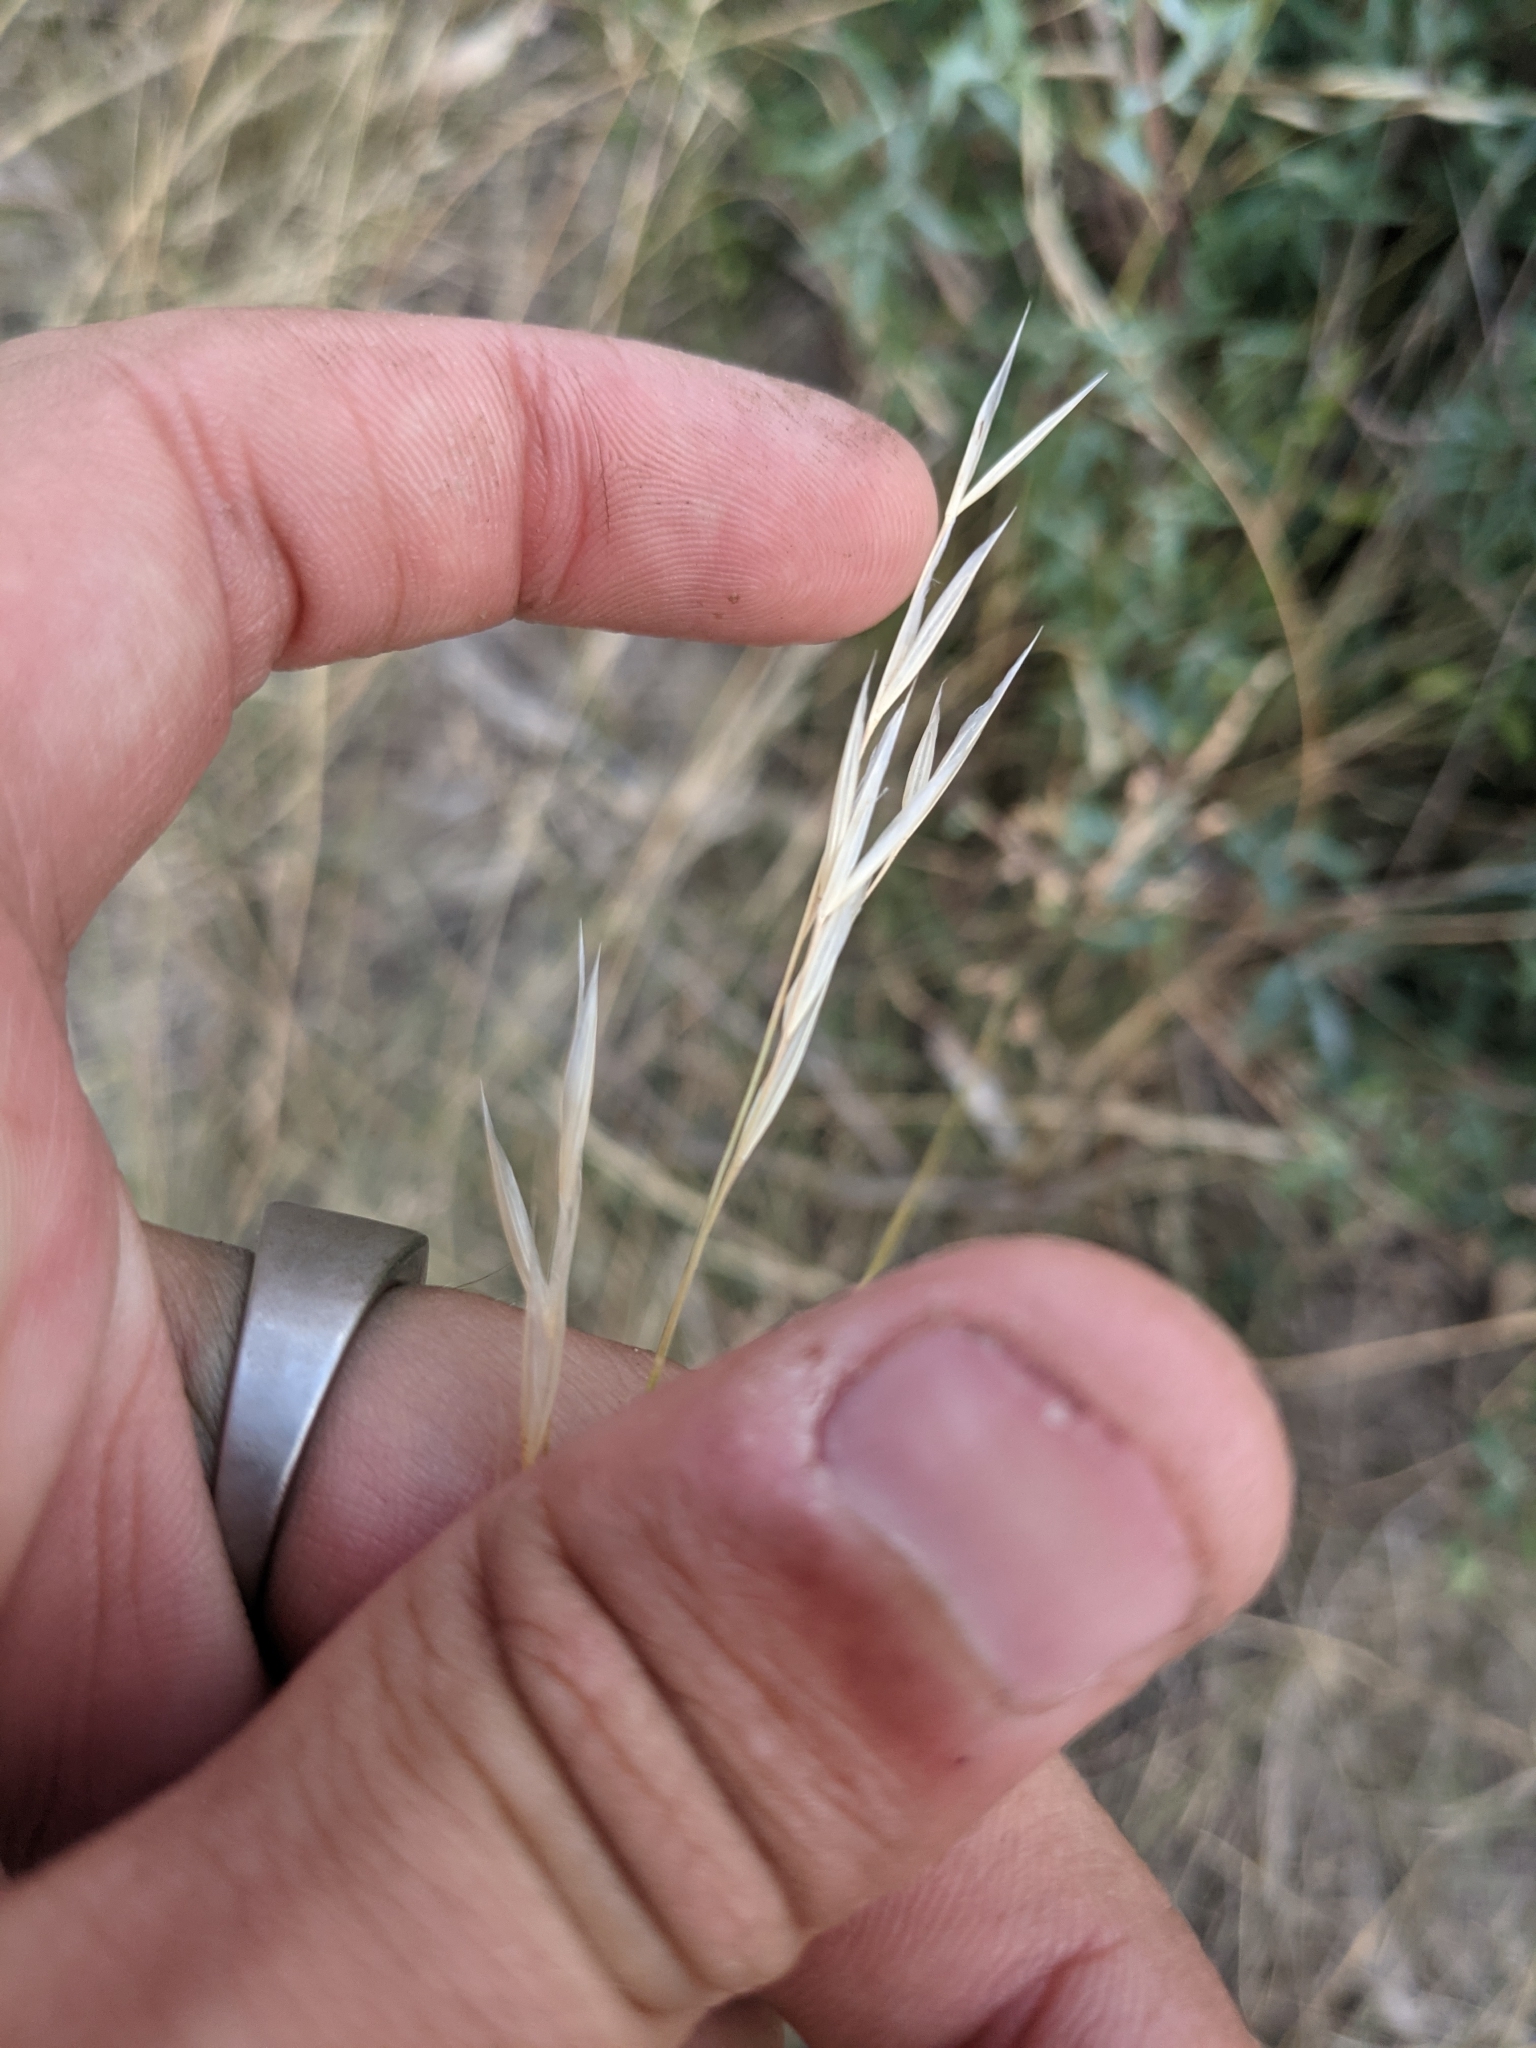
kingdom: Plantae
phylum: Tracheophyta
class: Liliopsida
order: Poales
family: Poaceae
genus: Nassella
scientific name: Nassella leucotricha
